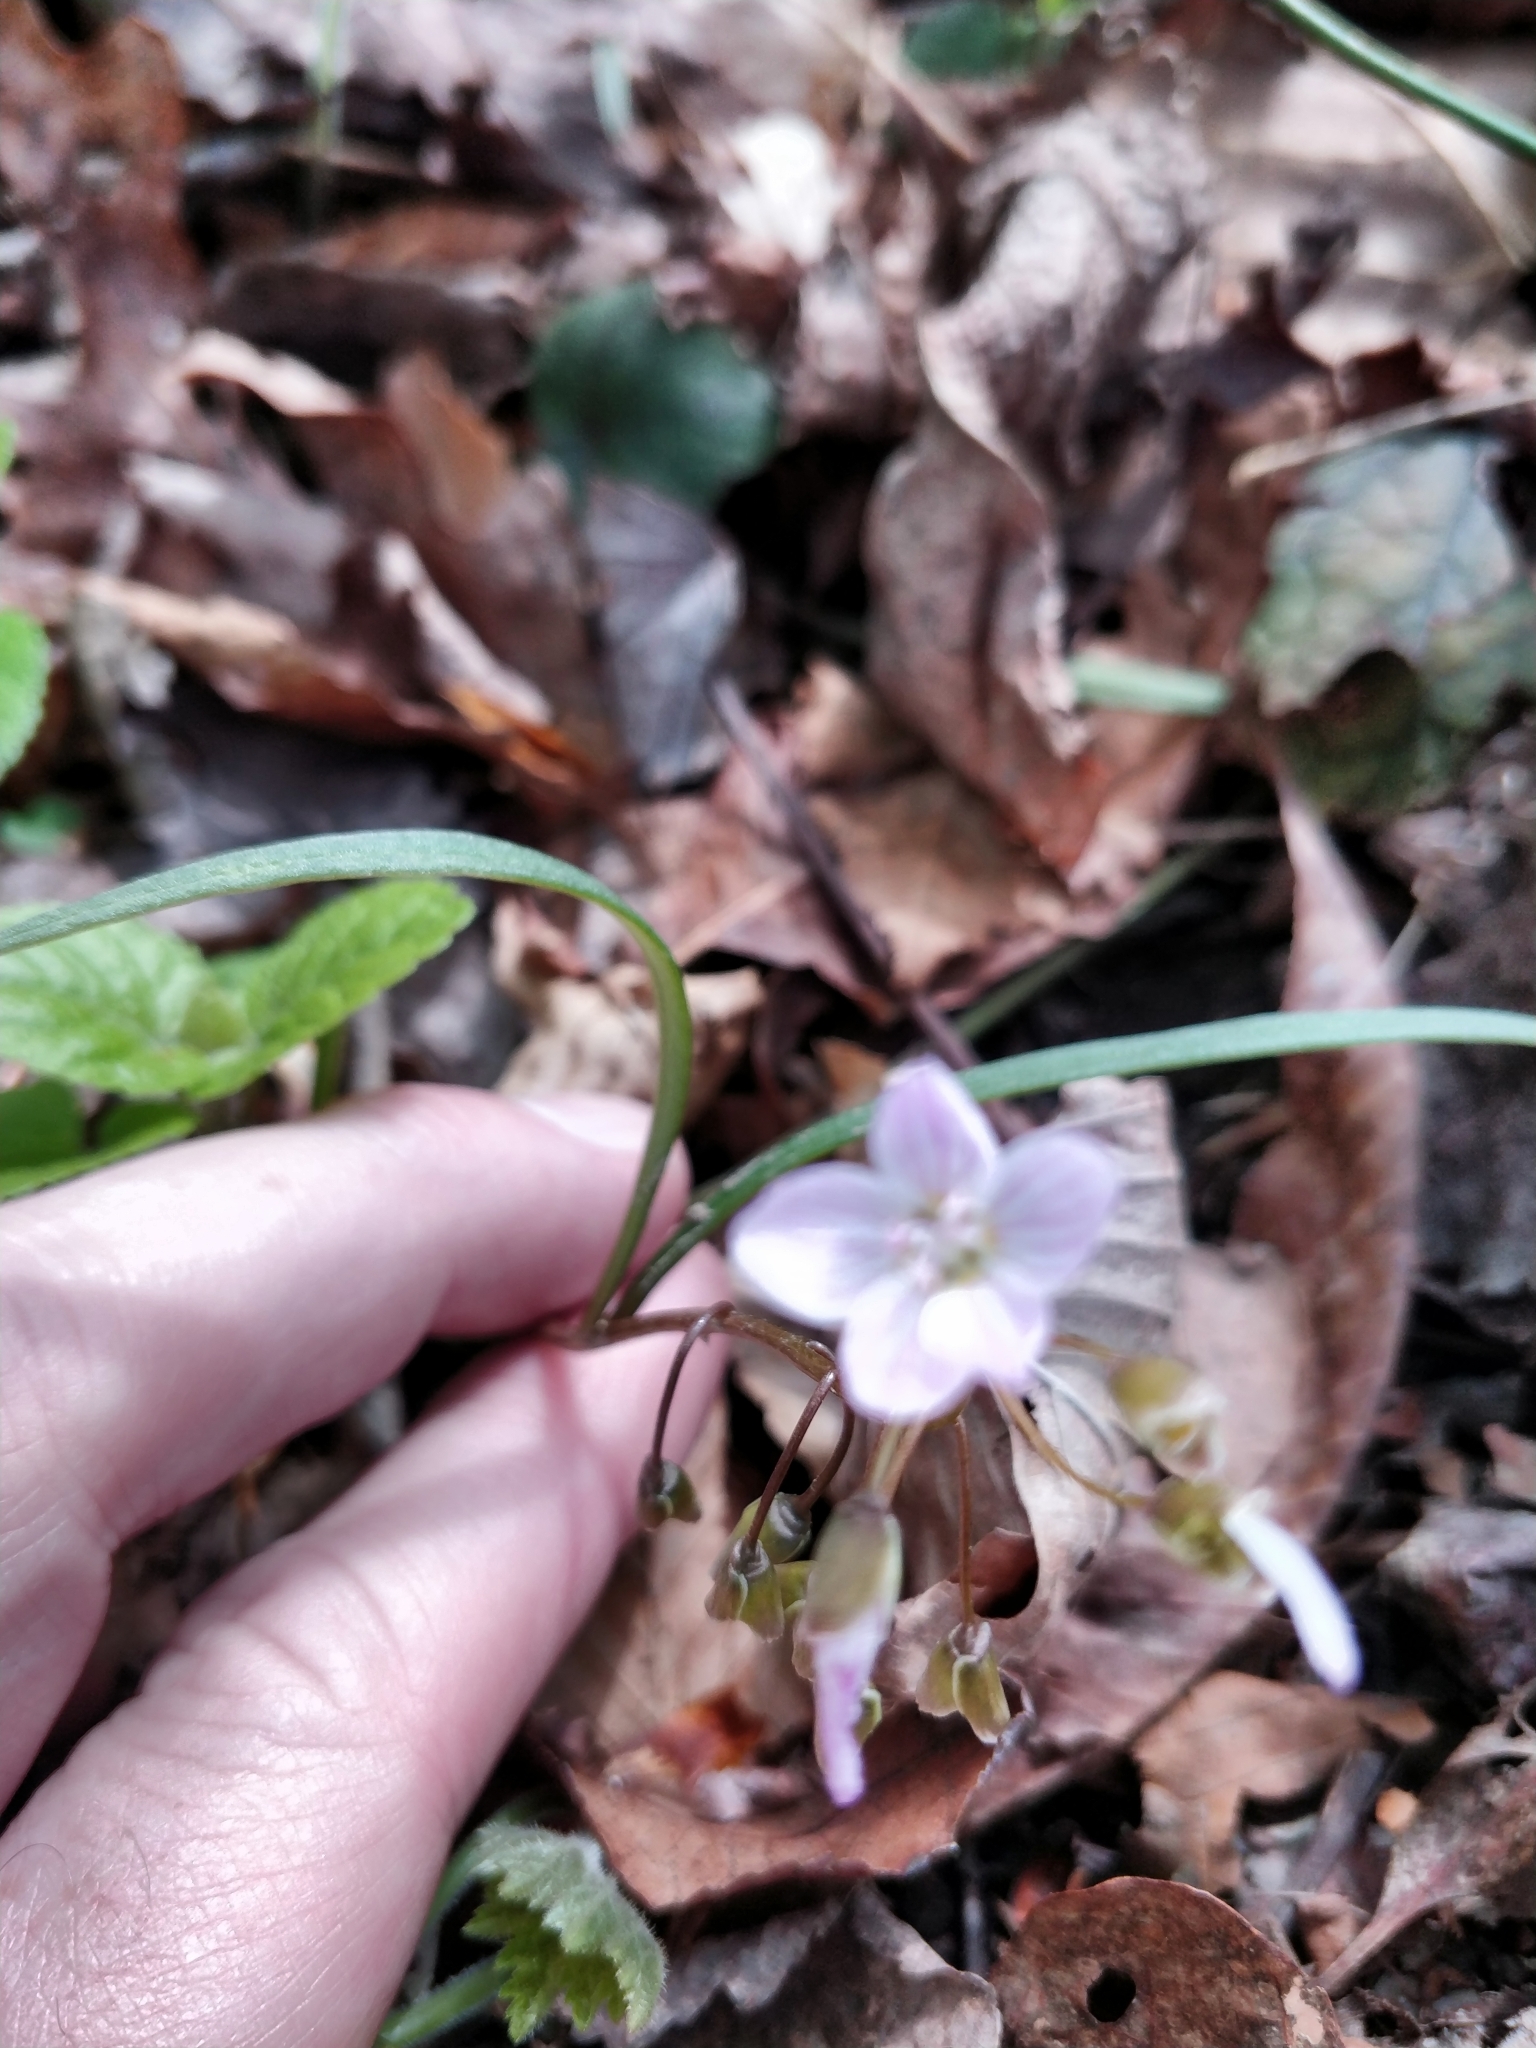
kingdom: Plantae
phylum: Tracheophyta
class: Magnoliopsida
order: Caryophyllales
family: Montiaceae
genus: Claytonia
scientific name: Claytonia virginica
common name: Virginia springbeauty
